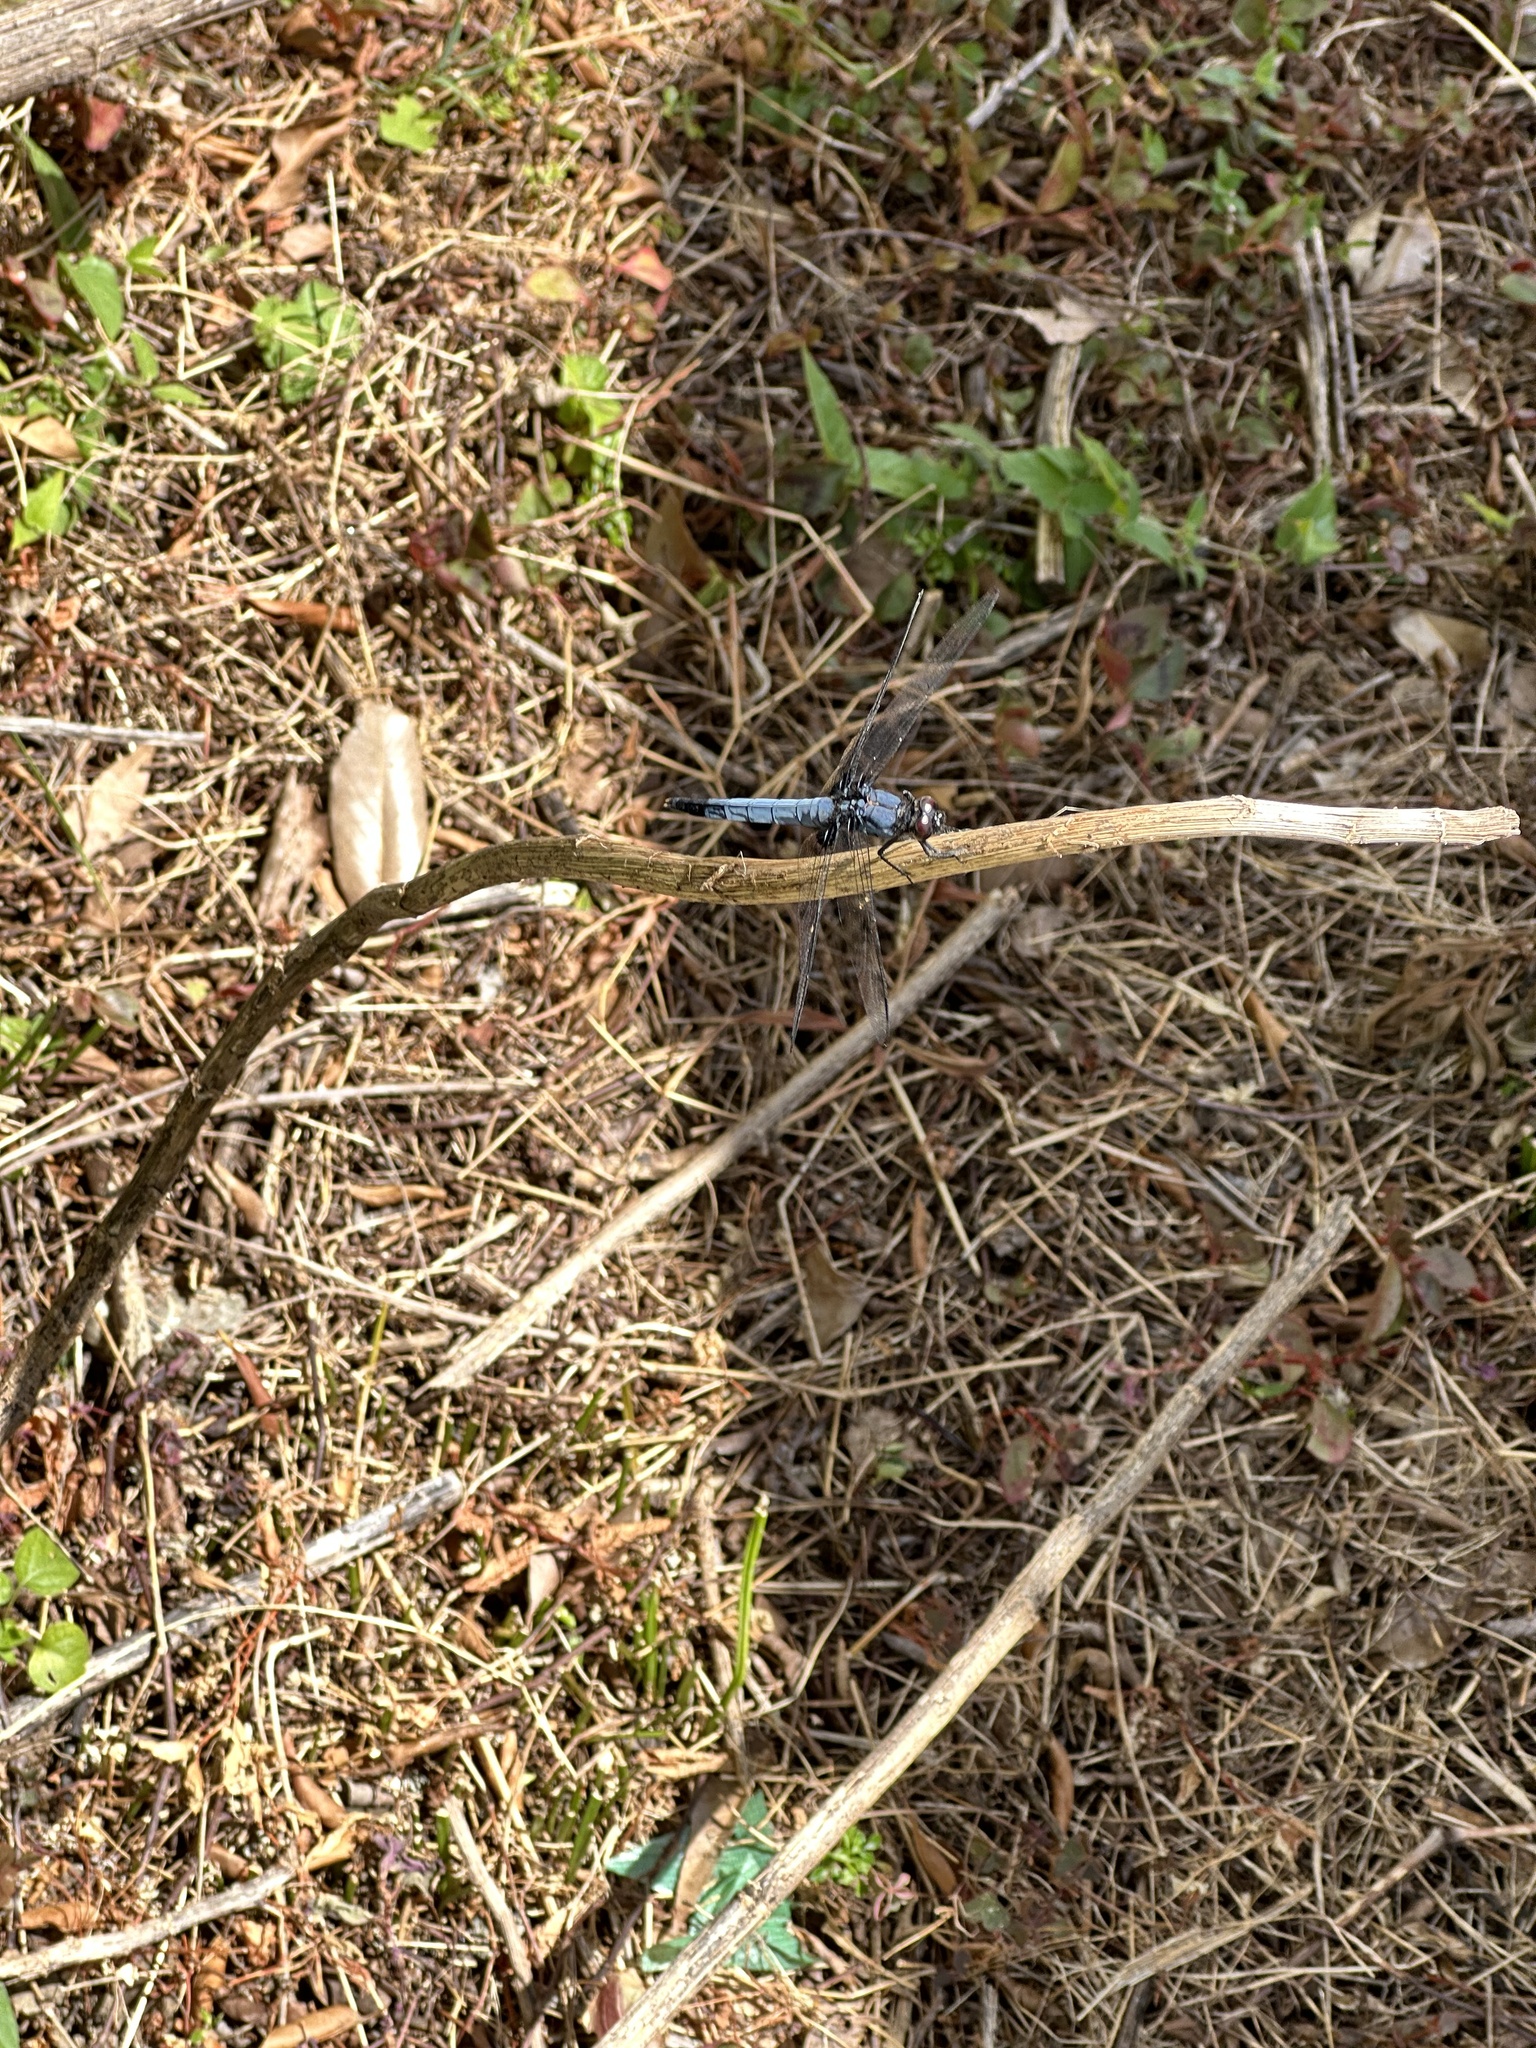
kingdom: Animalia
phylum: Arthropoda
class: Insecta
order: Odonata
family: Libellulidae
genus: Orthetrum
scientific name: Orthetrum melania
